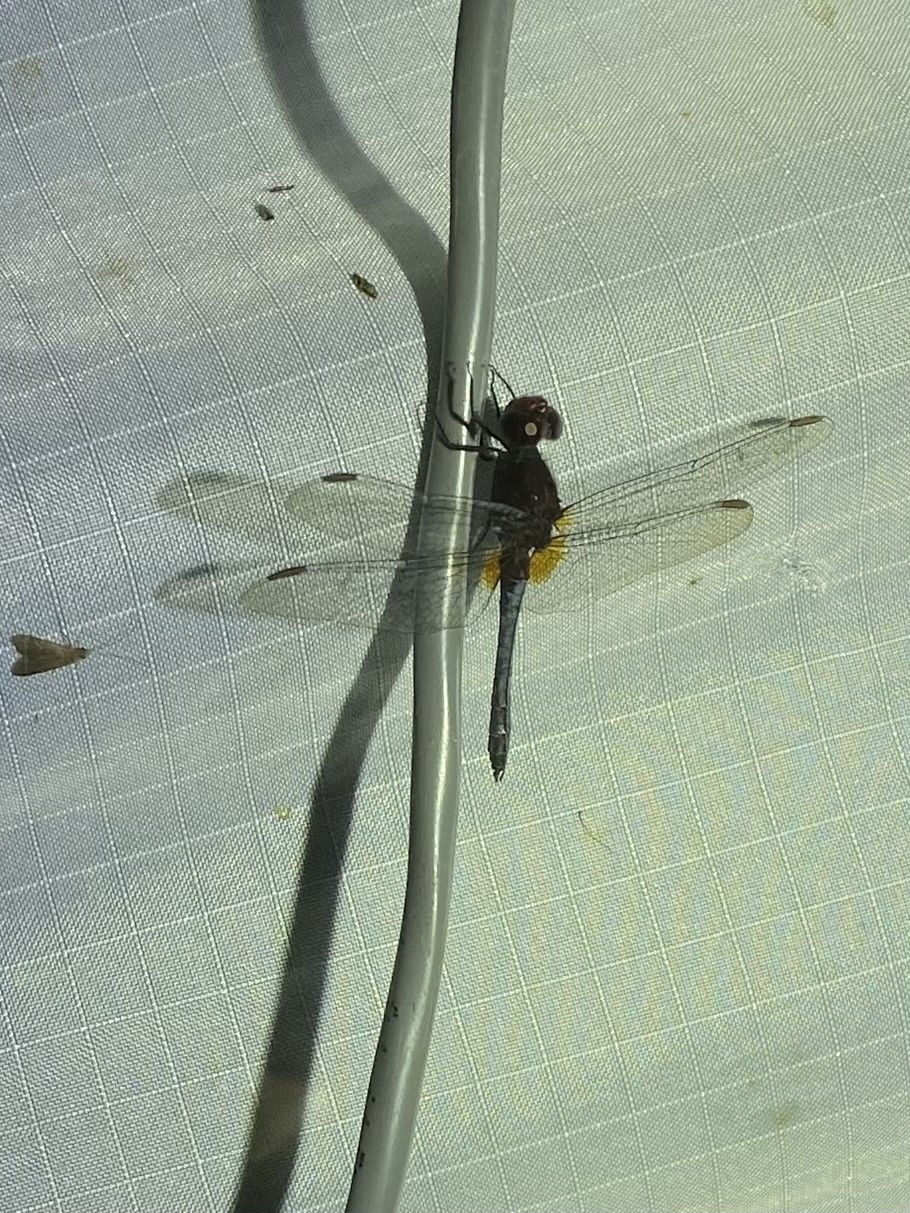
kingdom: Animalia
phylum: Arthropoda
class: Insecta
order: Odonata
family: Libellulidae
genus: Erythrodiplax
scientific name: Erythrodiplax fusca
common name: Red-faced dragonlet
